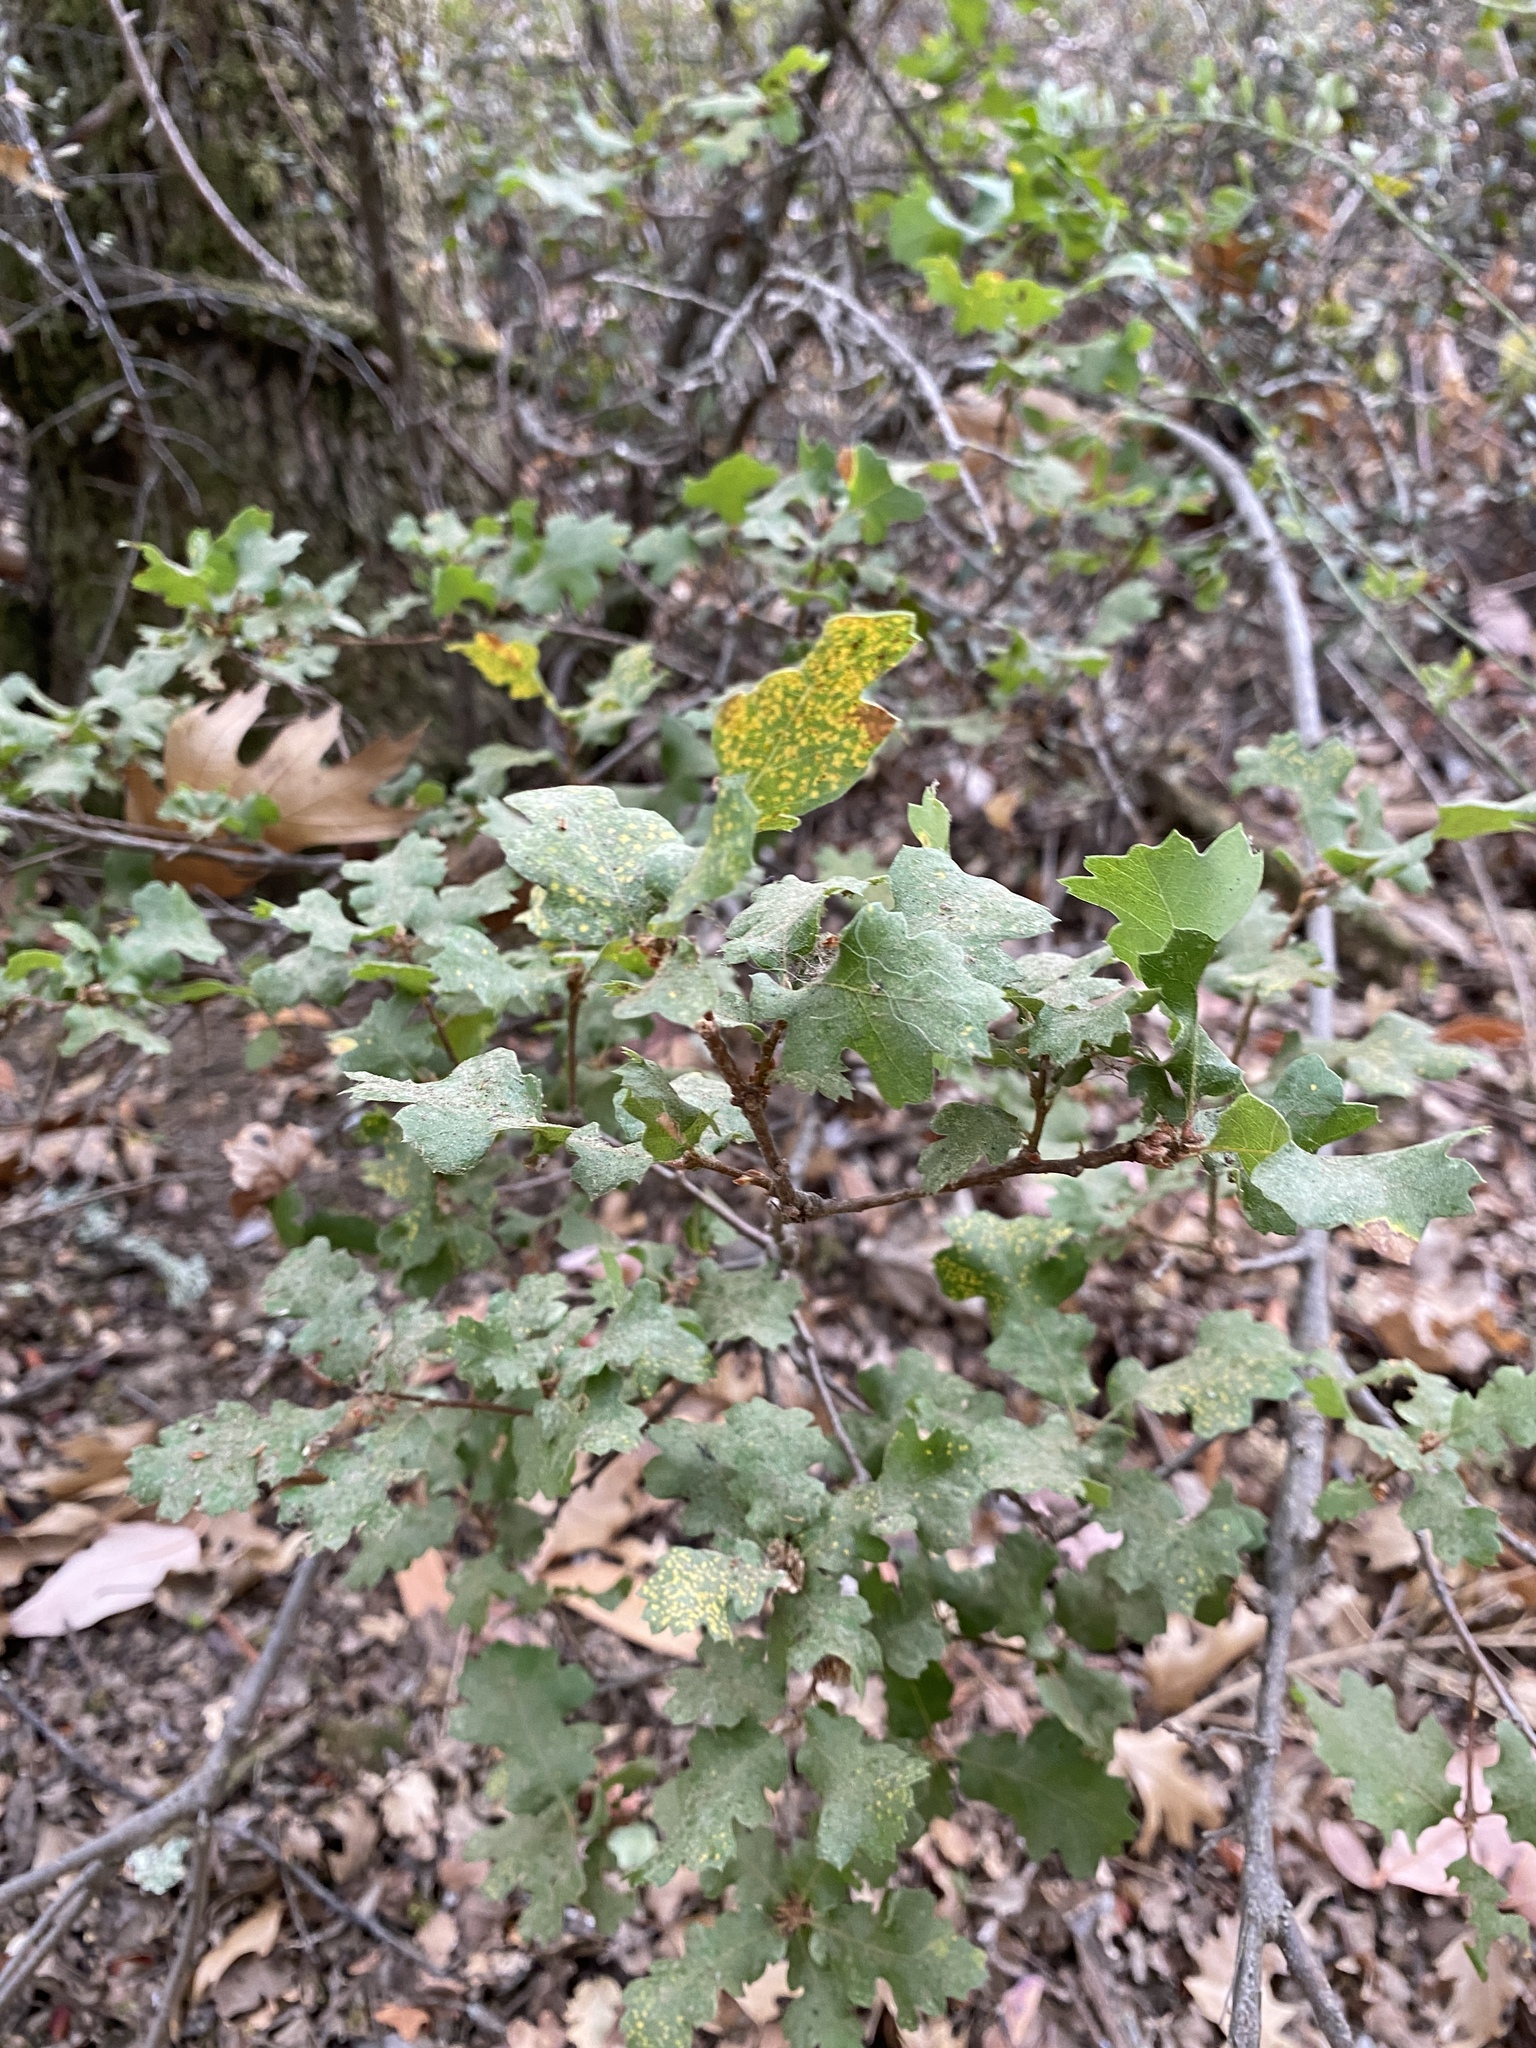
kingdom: Animalia
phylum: Arthropoda
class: Insecta
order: Hymenoptera
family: Cynipidae
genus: Andricus
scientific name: Andricus quercuscalifornicus
